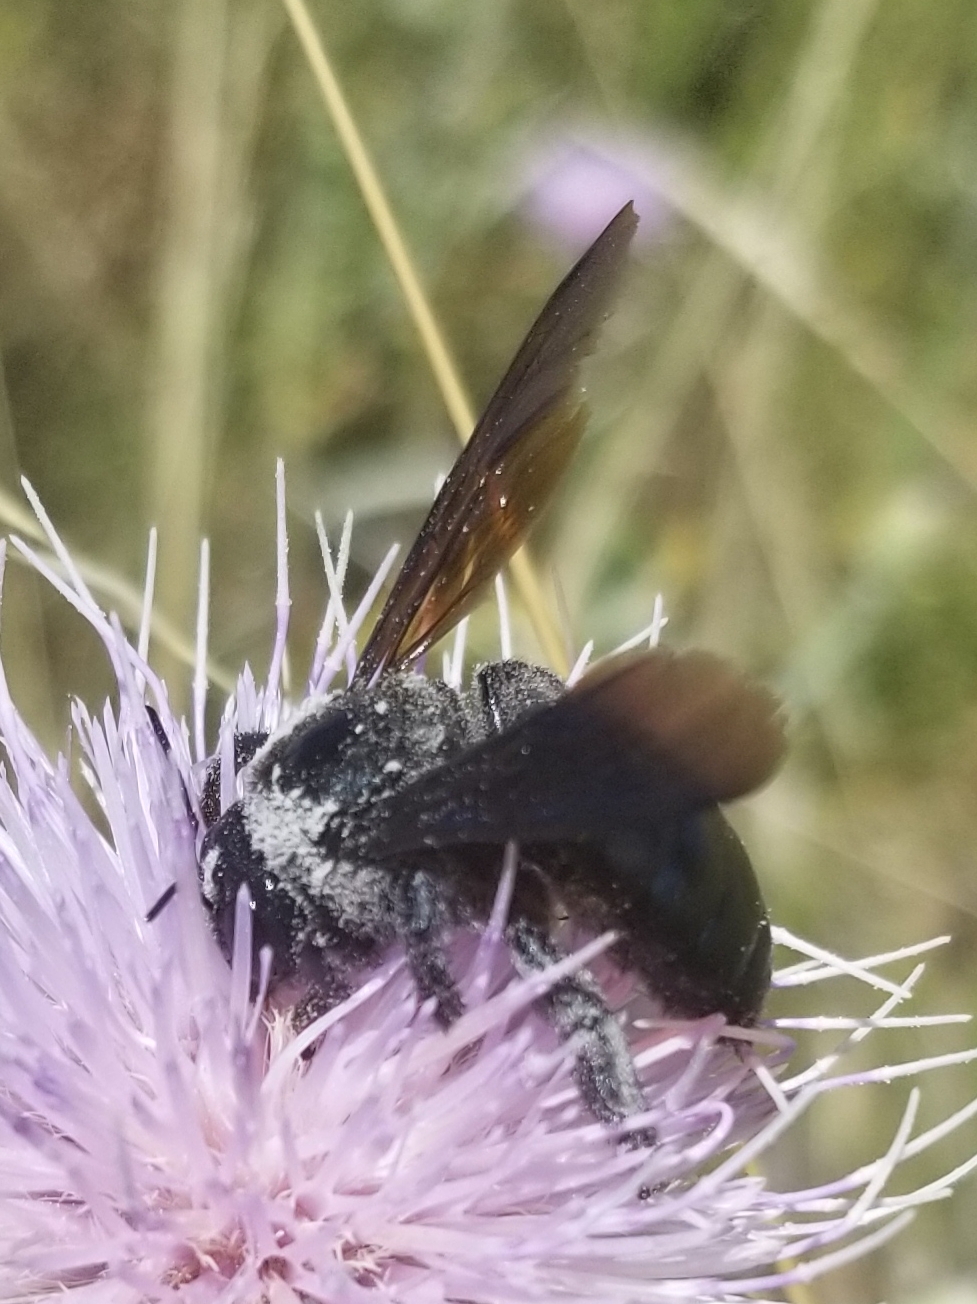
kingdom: Animalia
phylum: Arthropoda
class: Insecta
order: Hymenoptera
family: Apidae
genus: Xylocopa
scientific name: Xylocopa californica
